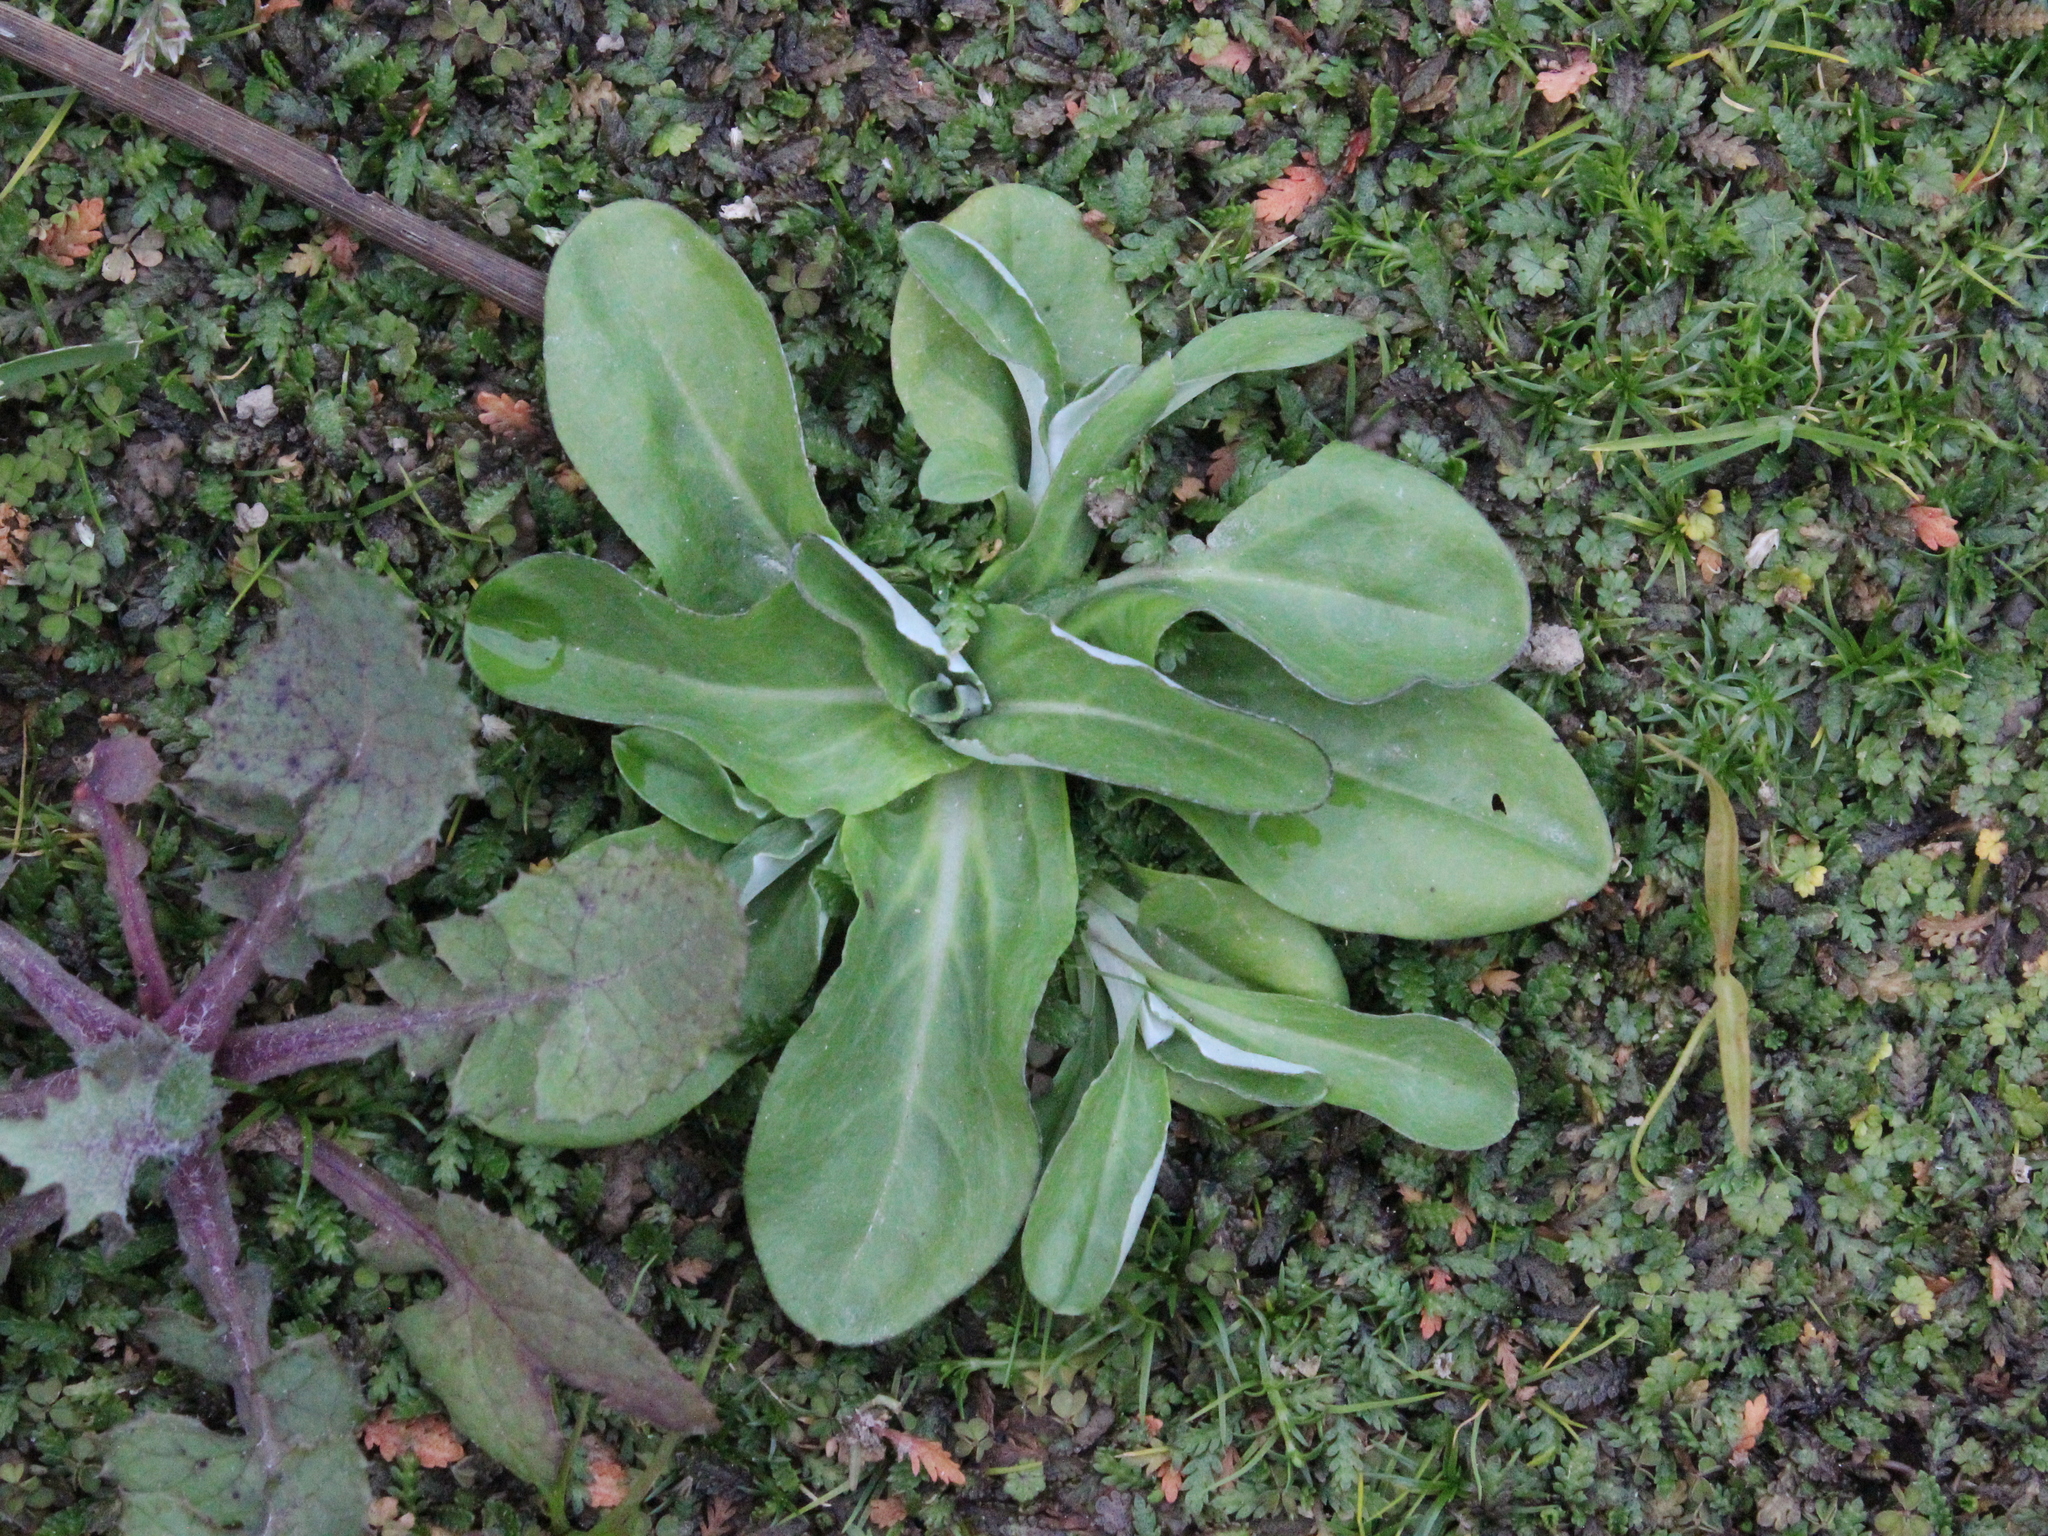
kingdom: Plantae
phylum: Tracheophyta
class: Magnoliopsida
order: Asterales
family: Asteraceae
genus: Gamochaeta
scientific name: Gamochaeta americana
